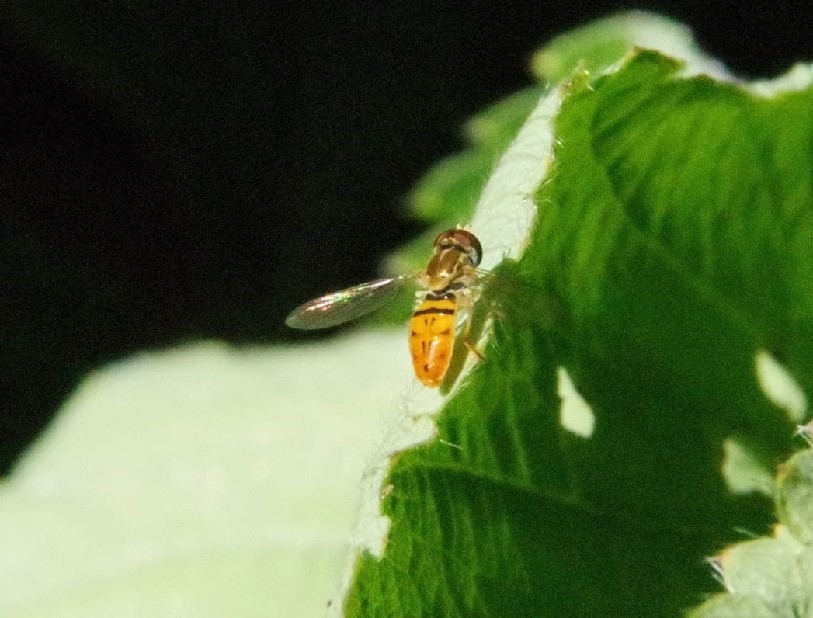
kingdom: Animalia
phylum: Arthropoda
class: Insecta
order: Diptera
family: Syrphidae
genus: Toxomerus
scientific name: Toxomerus marginatus
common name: Syrphid fly
